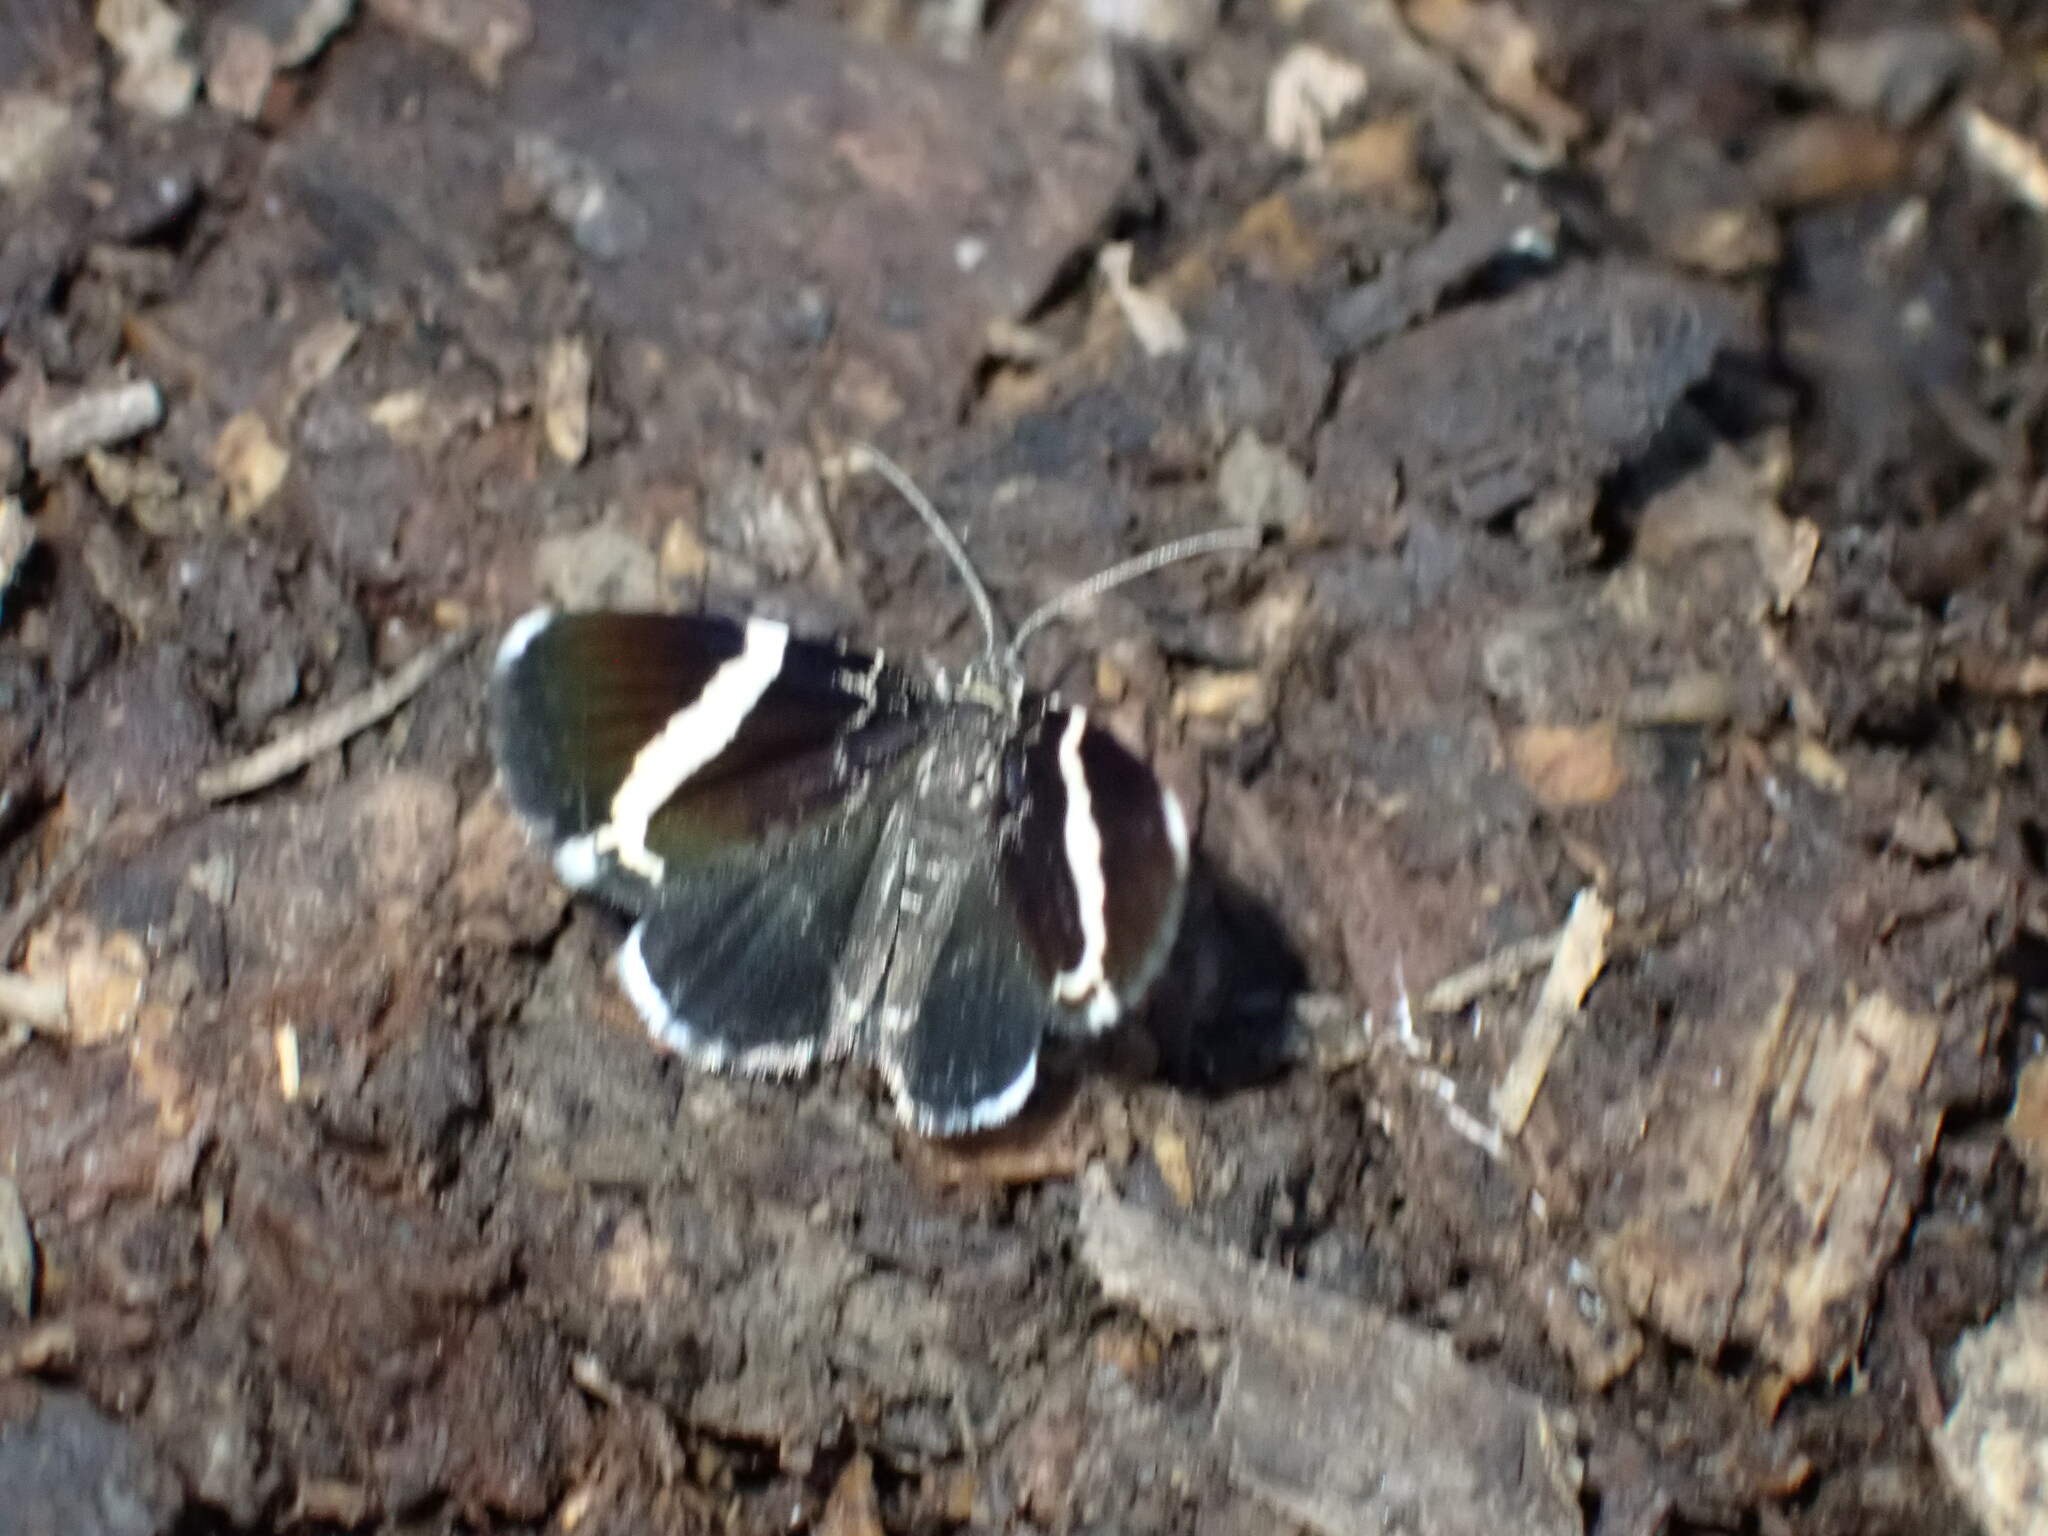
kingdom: Animalia
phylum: Arthropoda
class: Insecta
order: Lepidoptera
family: Geometridae
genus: Trichodezia
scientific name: Trichodezia albovittata
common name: White striped black
